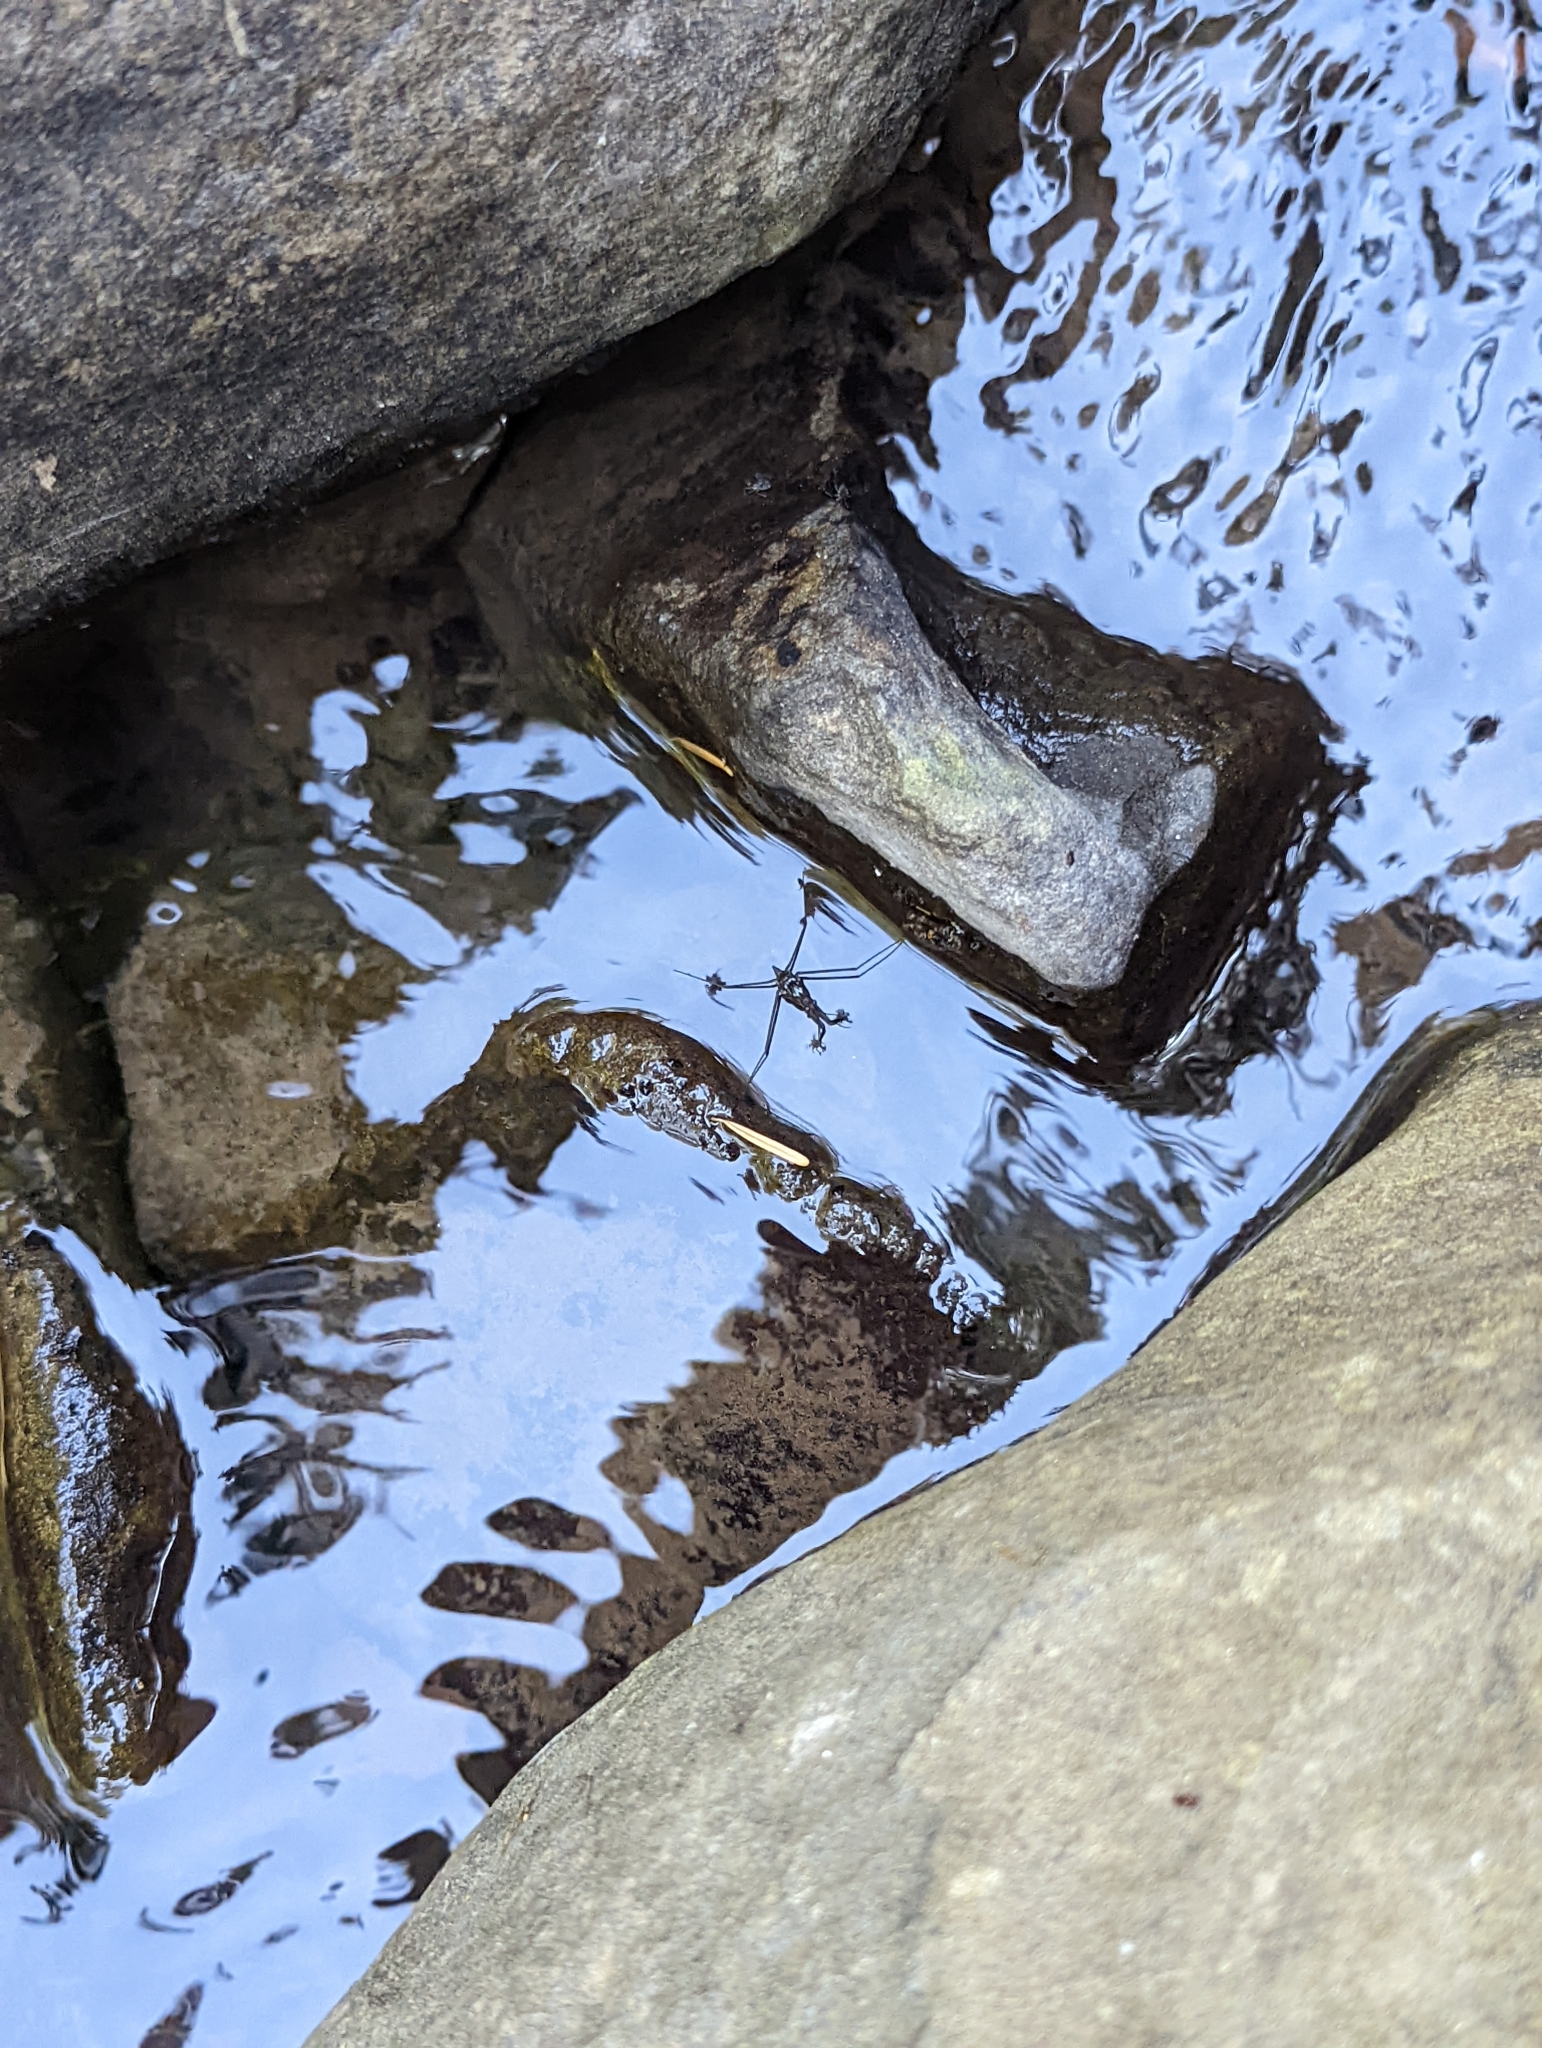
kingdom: Animalia
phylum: Arthropoda
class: Insecta
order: Hemiptera
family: Gerridae
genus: Aquarius
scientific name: Aquarius remigis
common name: Common water strider
